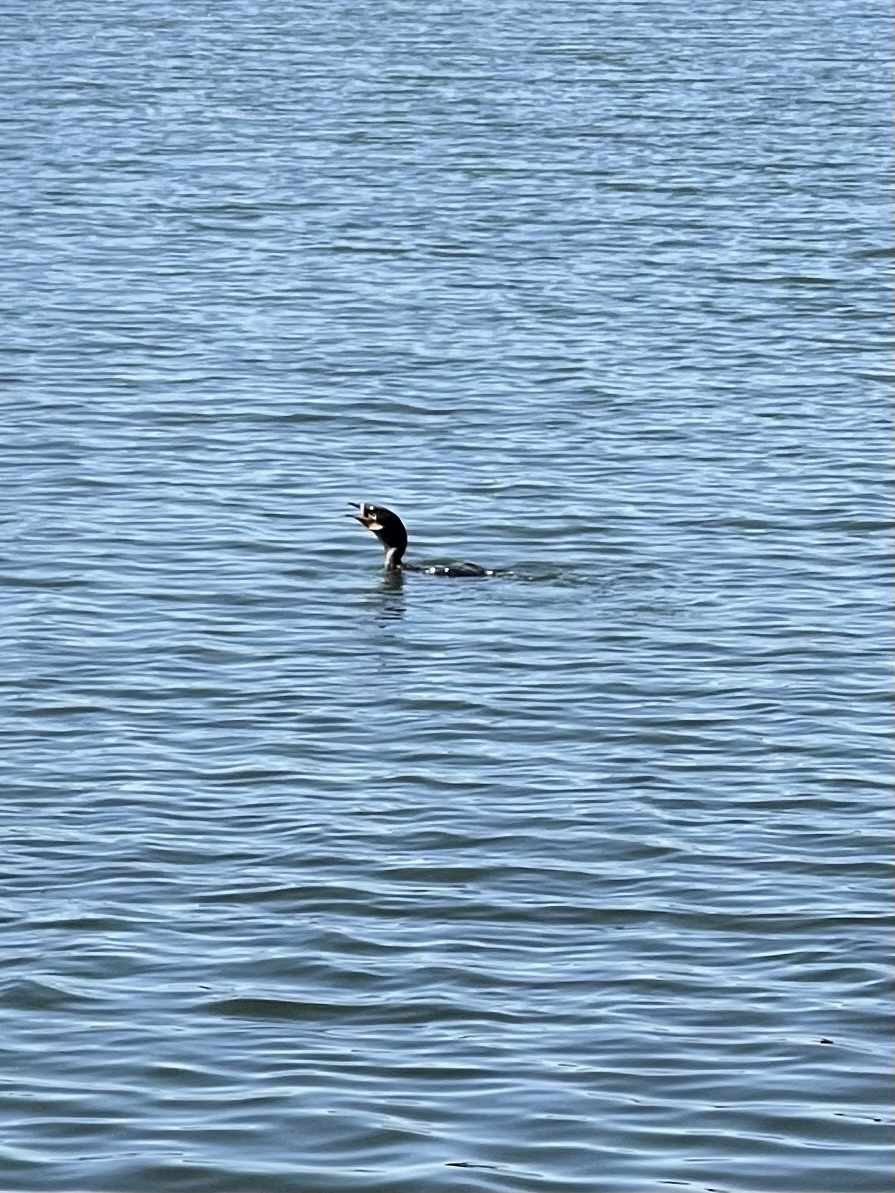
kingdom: Animalia
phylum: Chordata
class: Aves
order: Suliformes
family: Phalacrocoracidae
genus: Phalacrocorax
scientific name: Phalacrocorax auritus
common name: Double-crested cormorant
